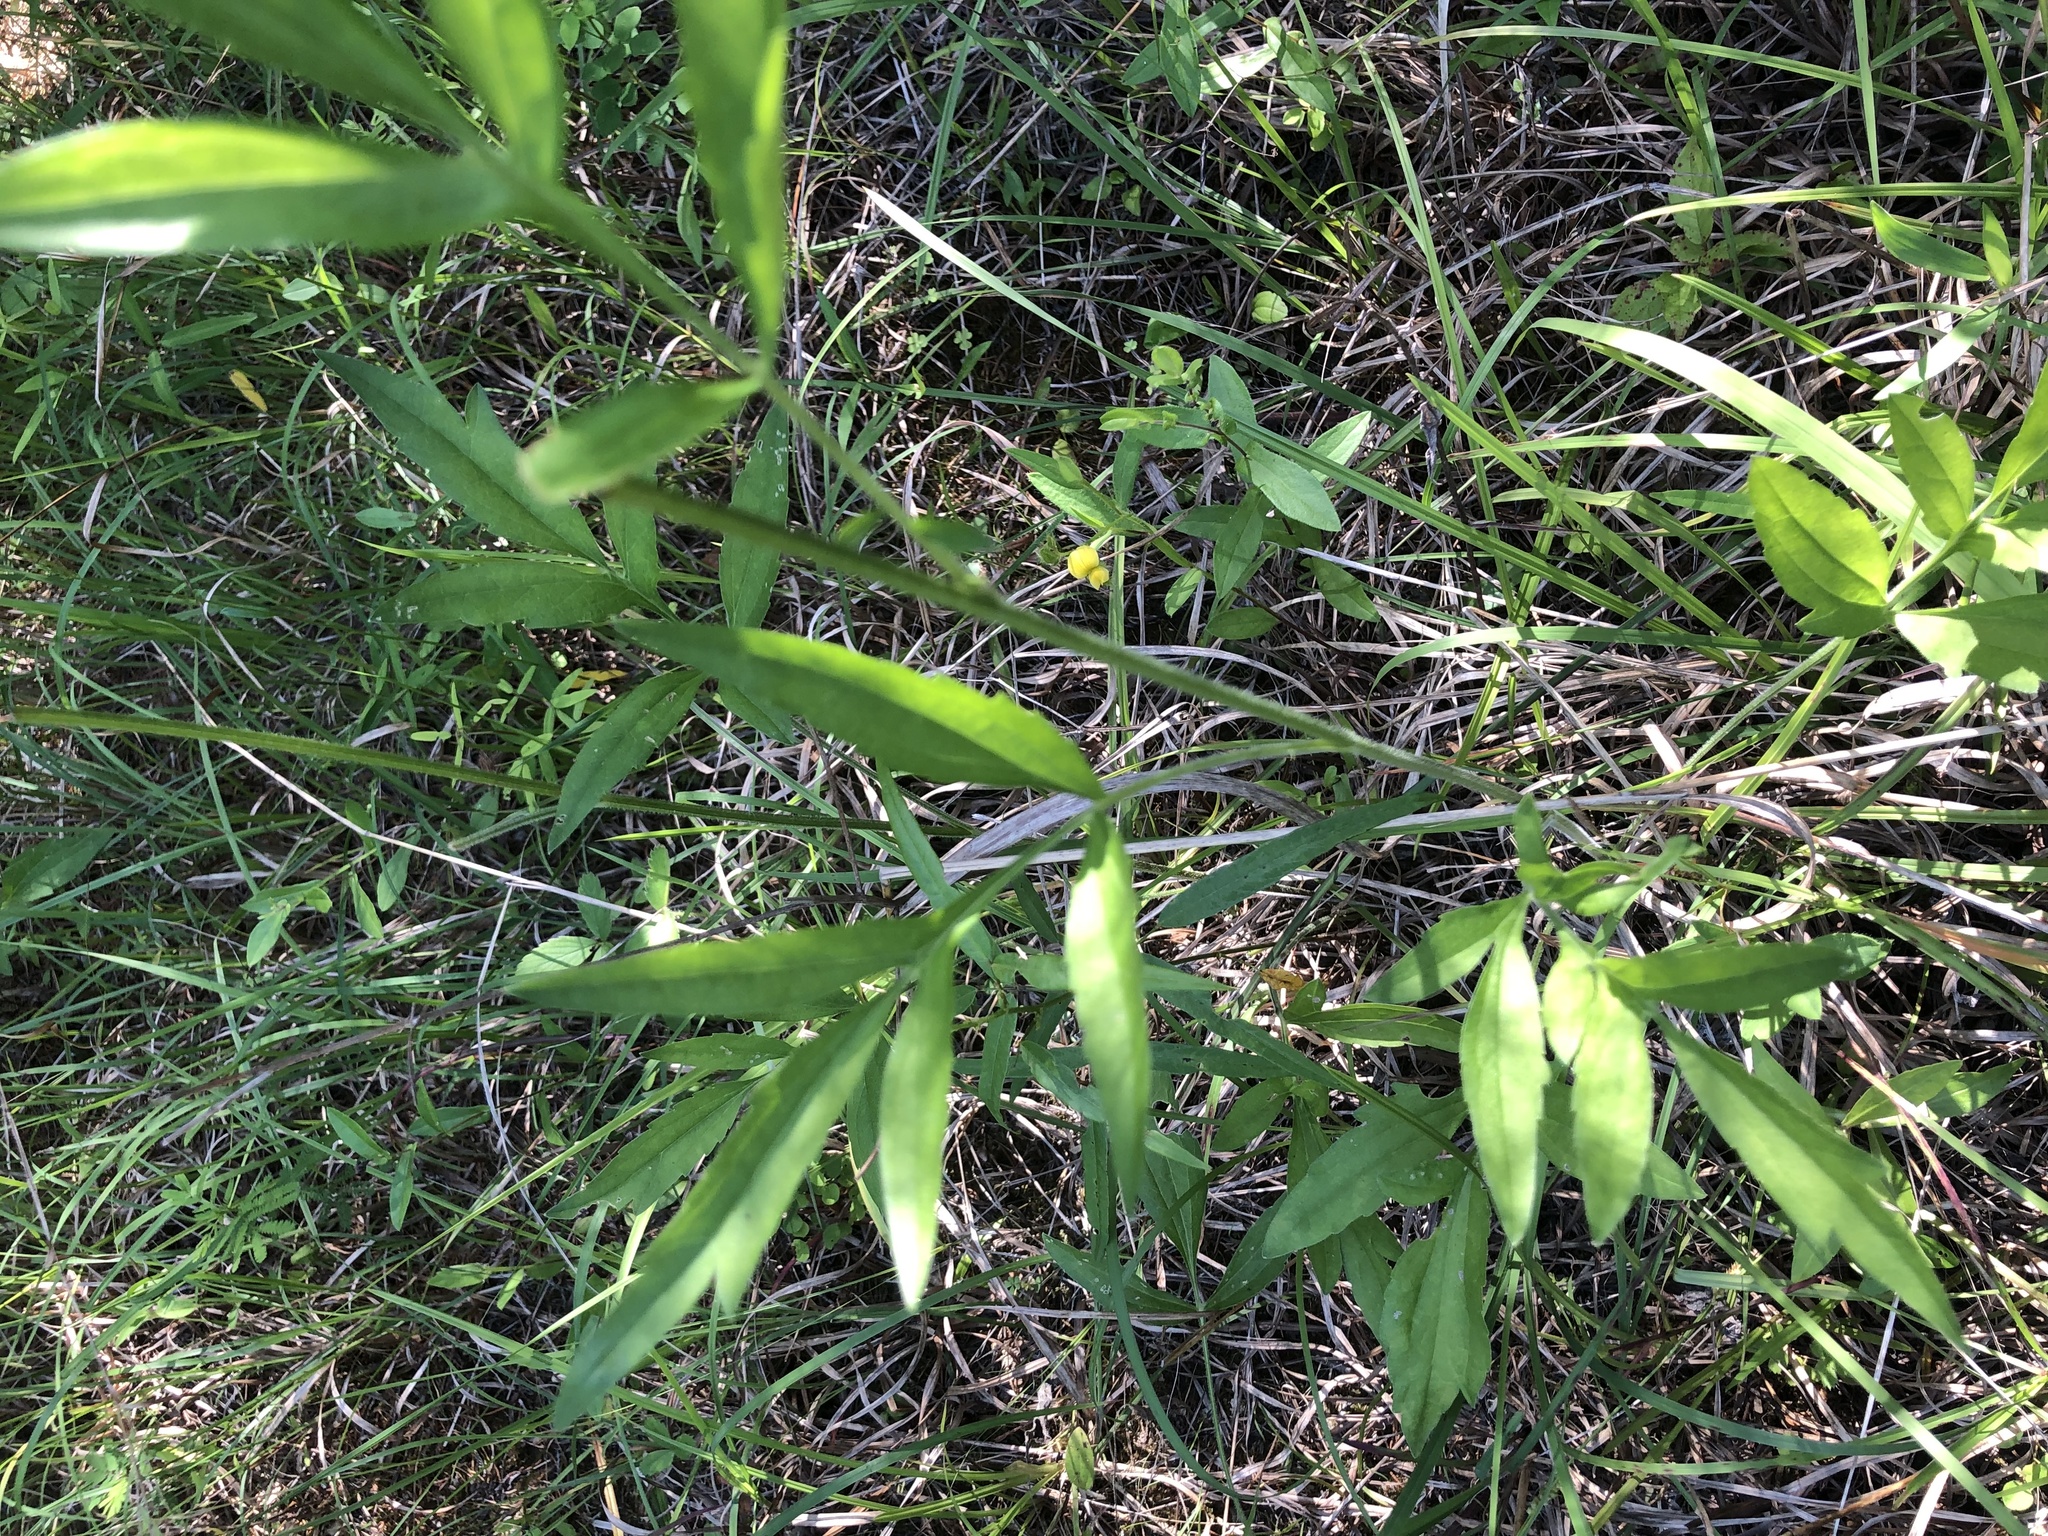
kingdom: Plantae
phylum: Tracheophyta
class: Magnoliopsida
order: Asterales
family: Asteraceae
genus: Ratibida
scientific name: Ratibida pinnata
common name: Drooping prairie-coneflower
